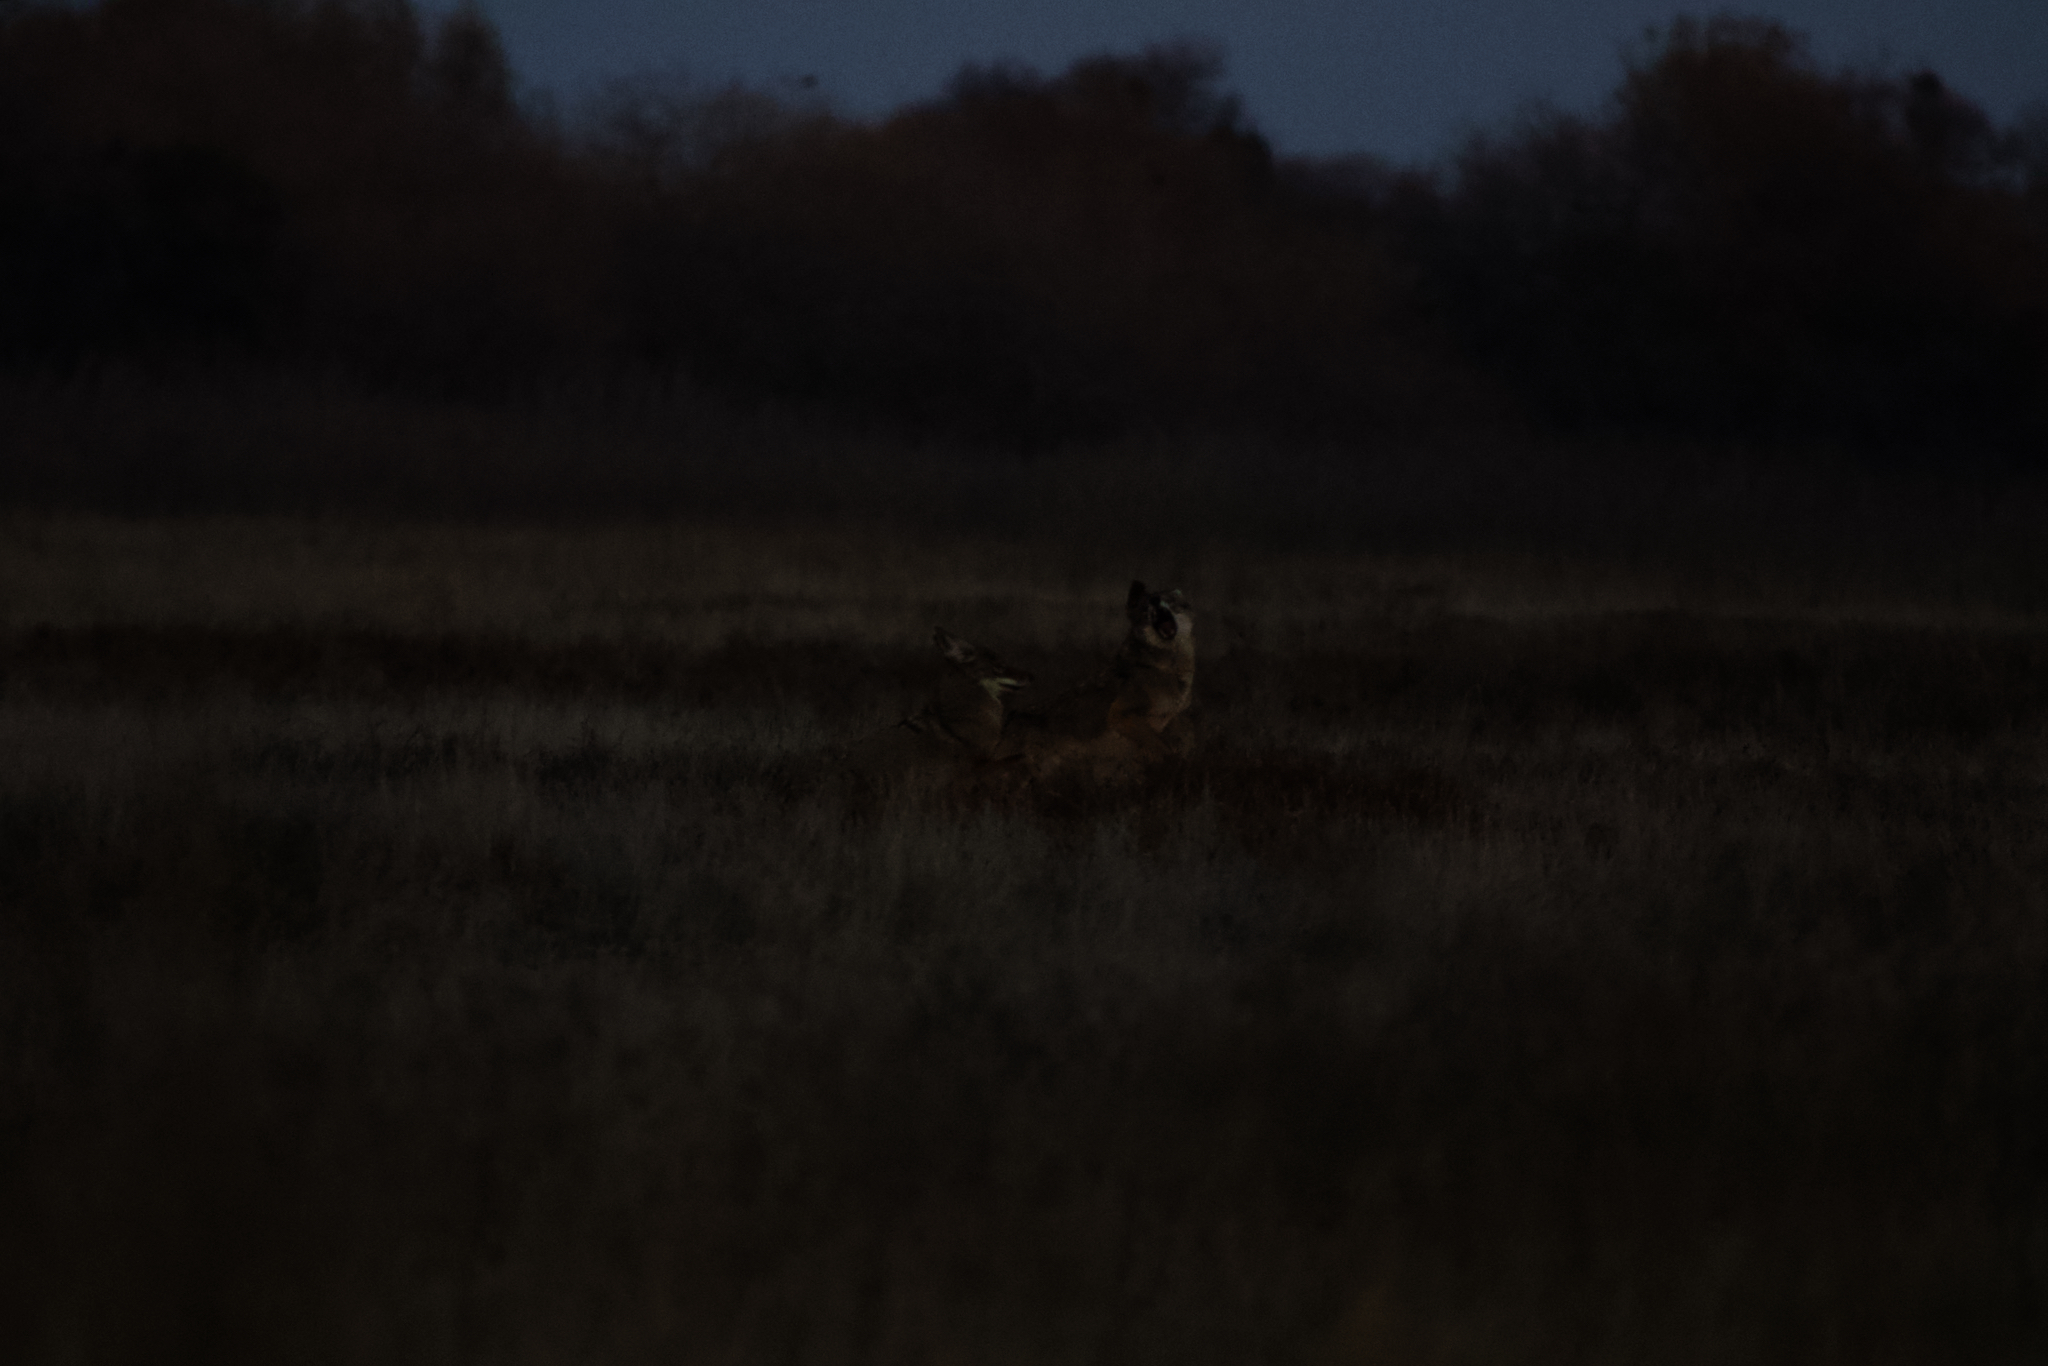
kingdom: Animalia
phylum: Chordata
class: Mammalia
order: Carnivora
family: Canidae
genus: Canis
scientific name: Canis latrans
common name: Coyote
